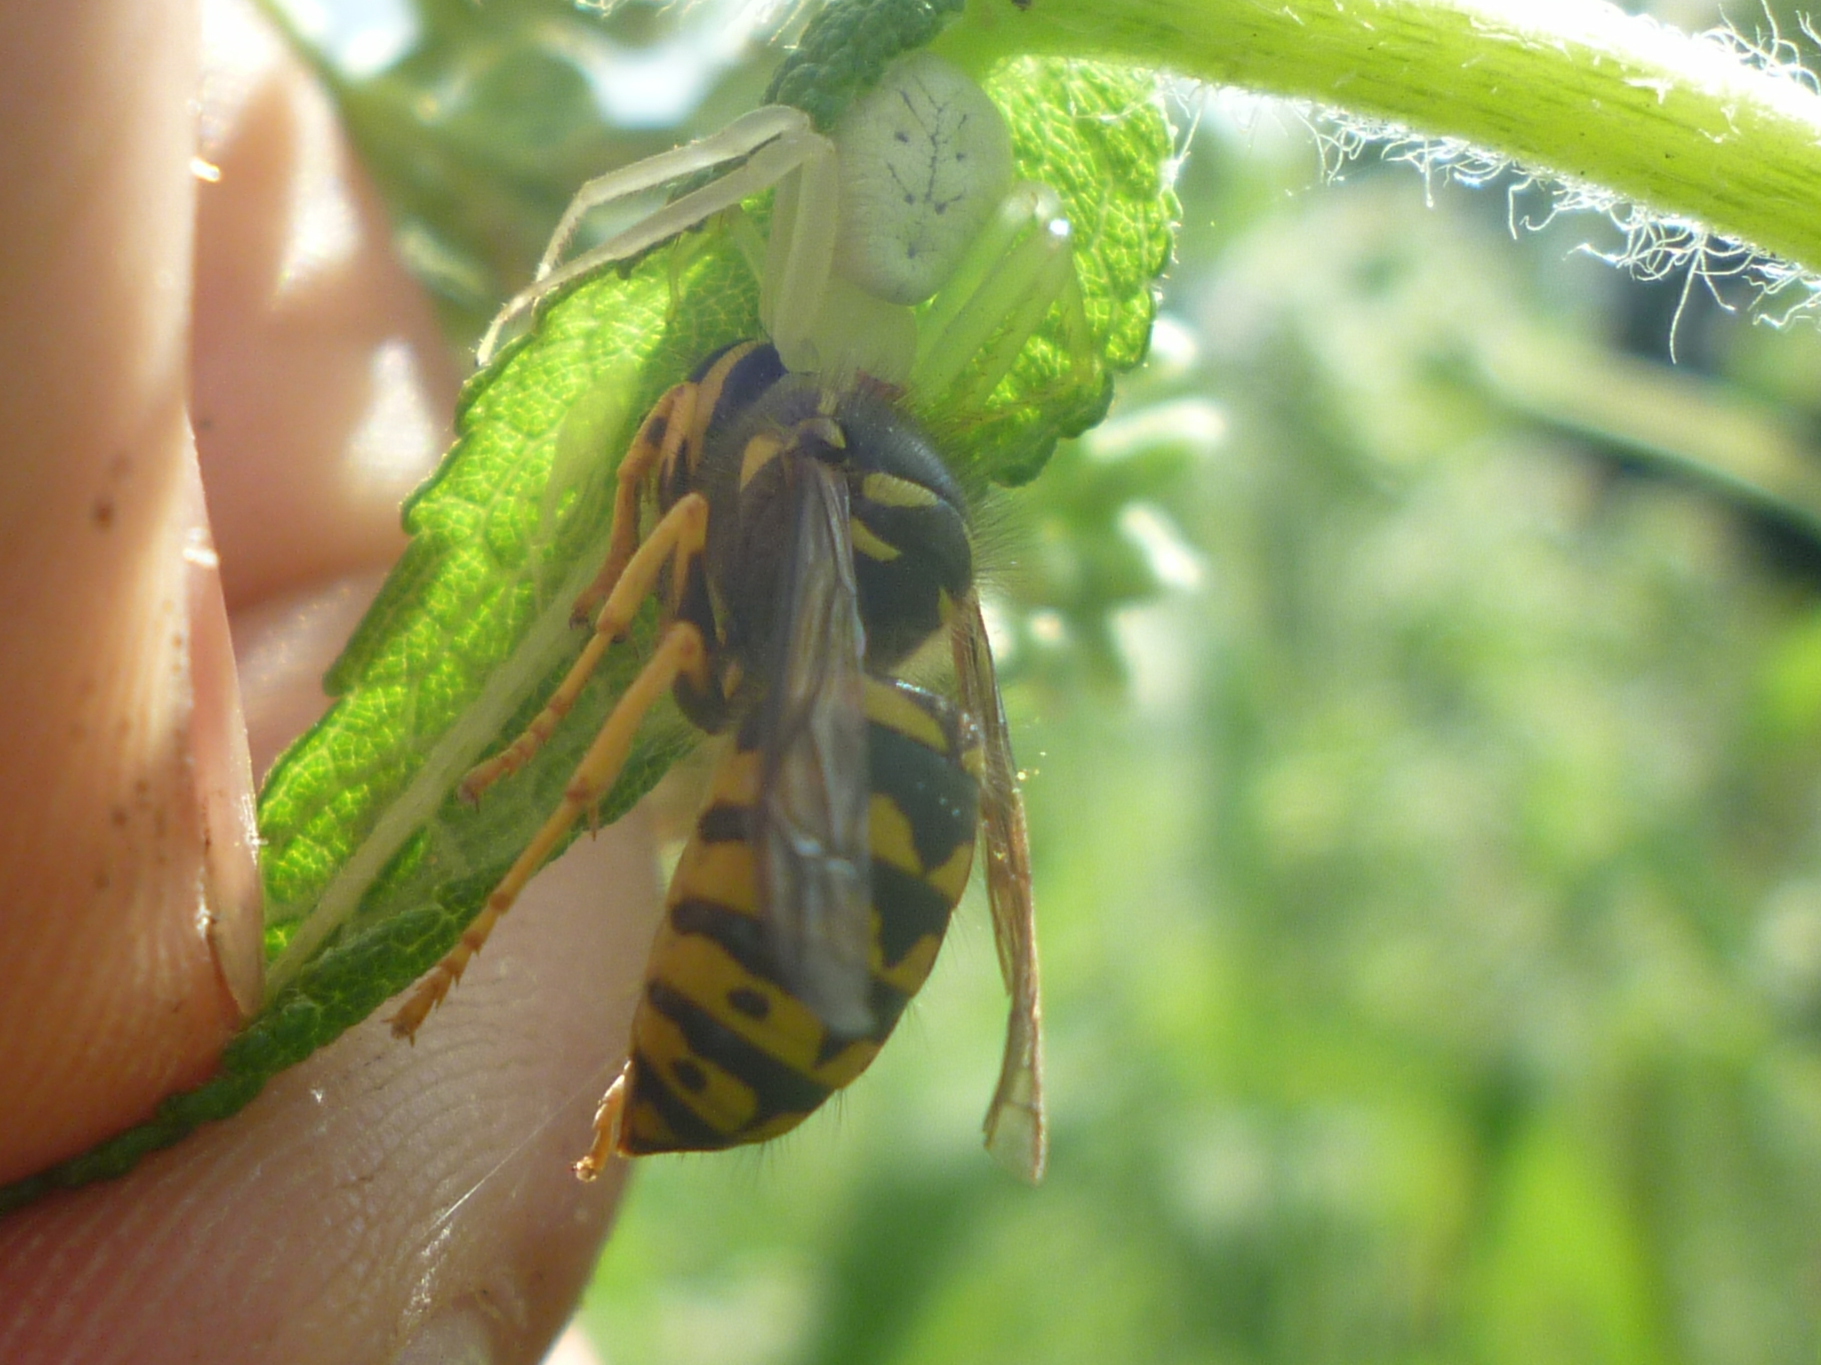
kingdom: Animalia
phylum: Arthropoda
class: Insecta
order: Hymenoptera
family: Vespidae
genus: Dolichovespula
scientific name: Dolichovespula arenaria
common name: Aerial yellowjacket
